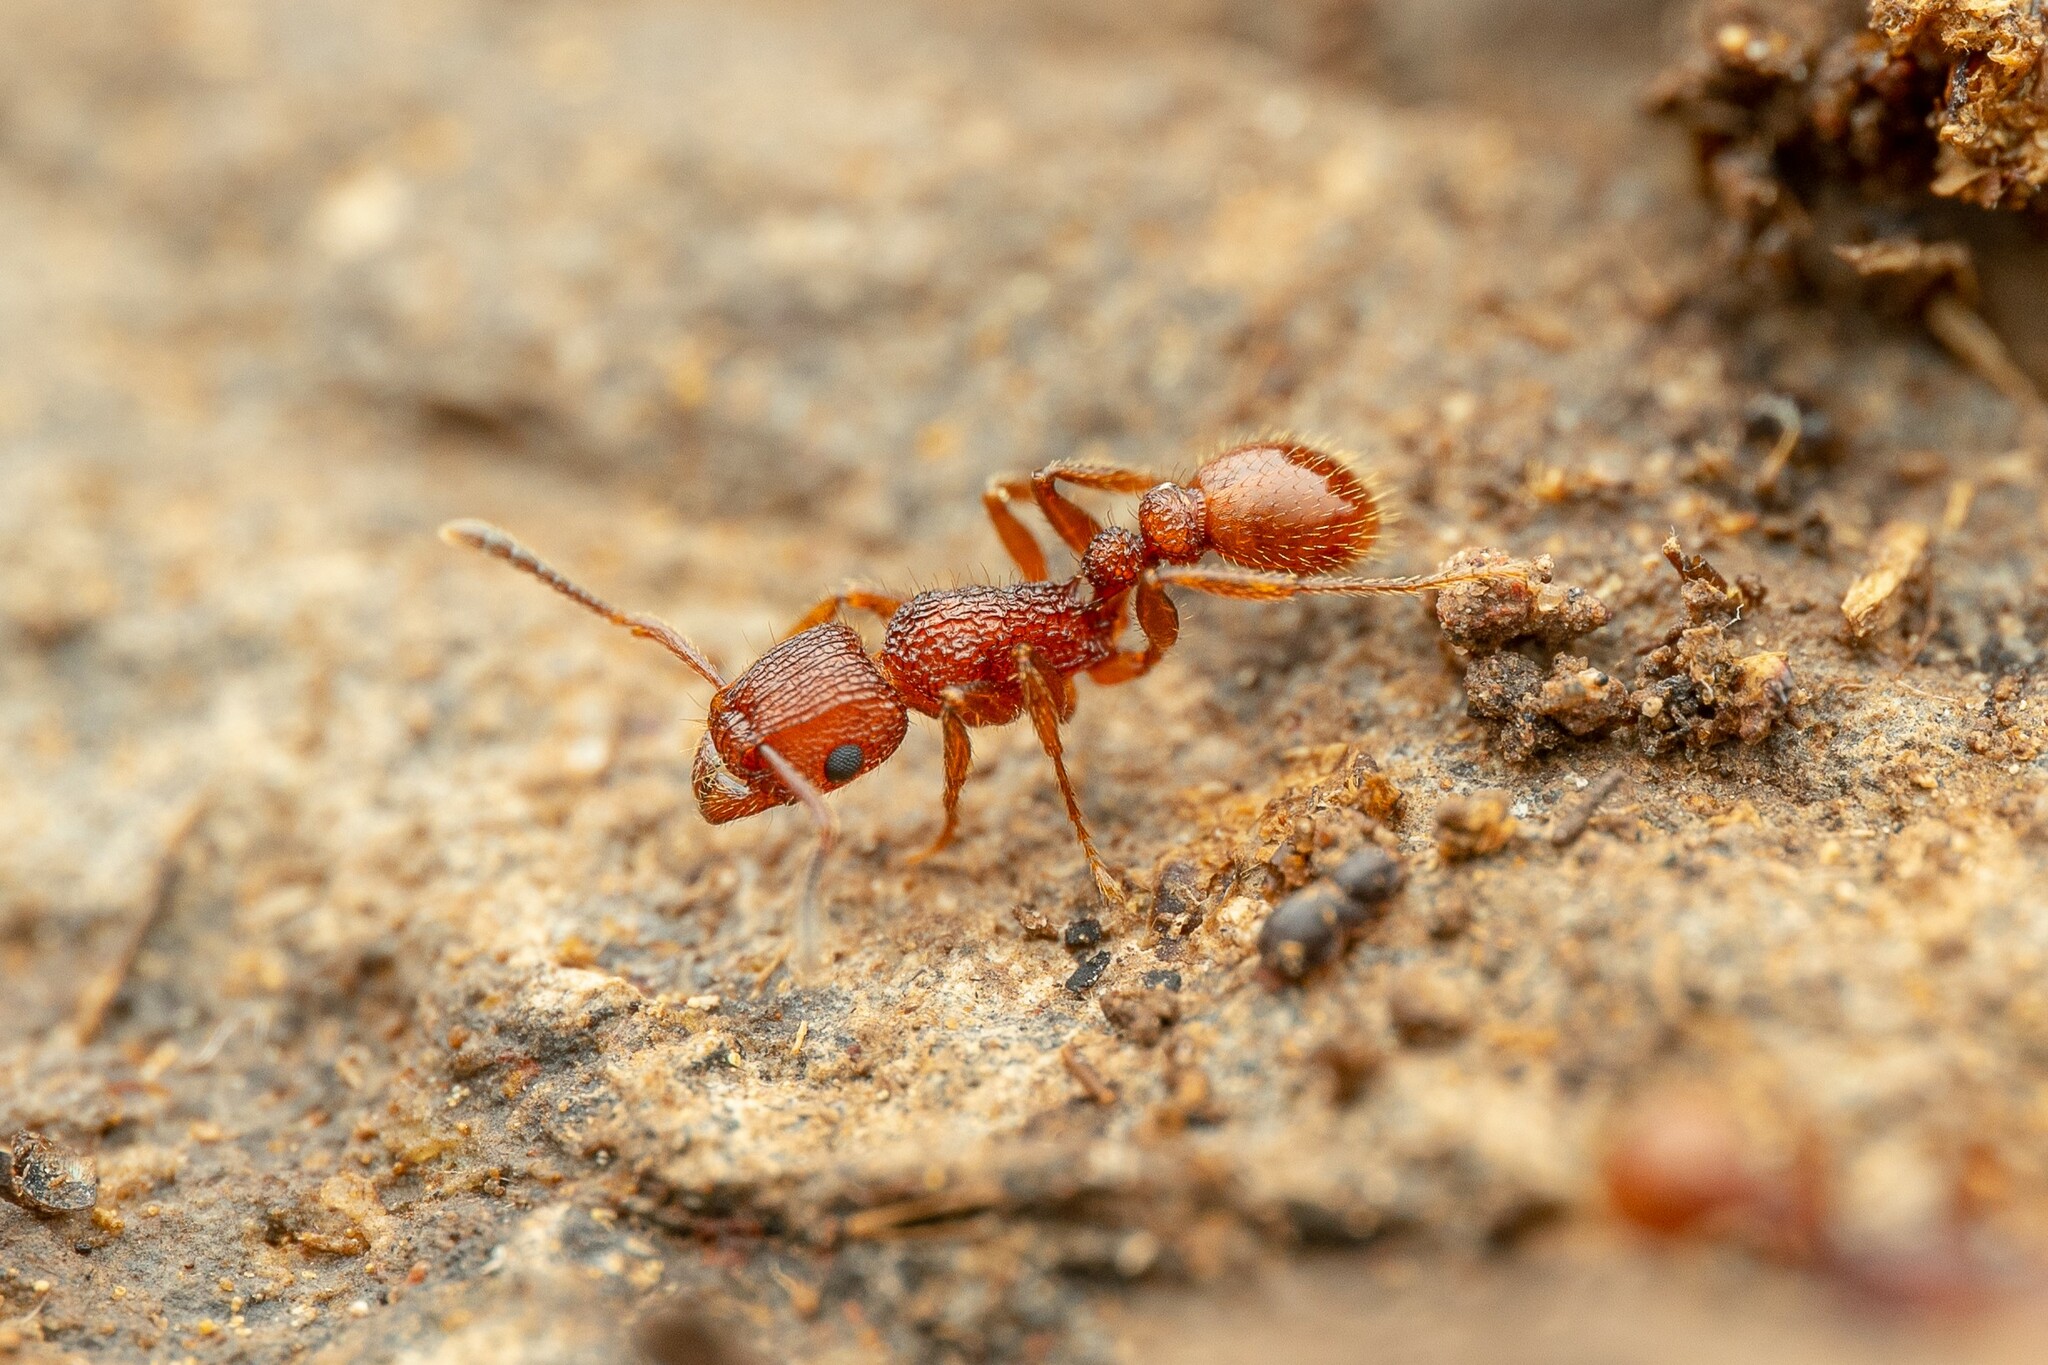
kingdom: Animalia
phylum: Arthropoda
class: Insecta
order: Hymenoptera
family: Formicidae
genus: Tetramorium
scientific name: Tetramorium hispidum
